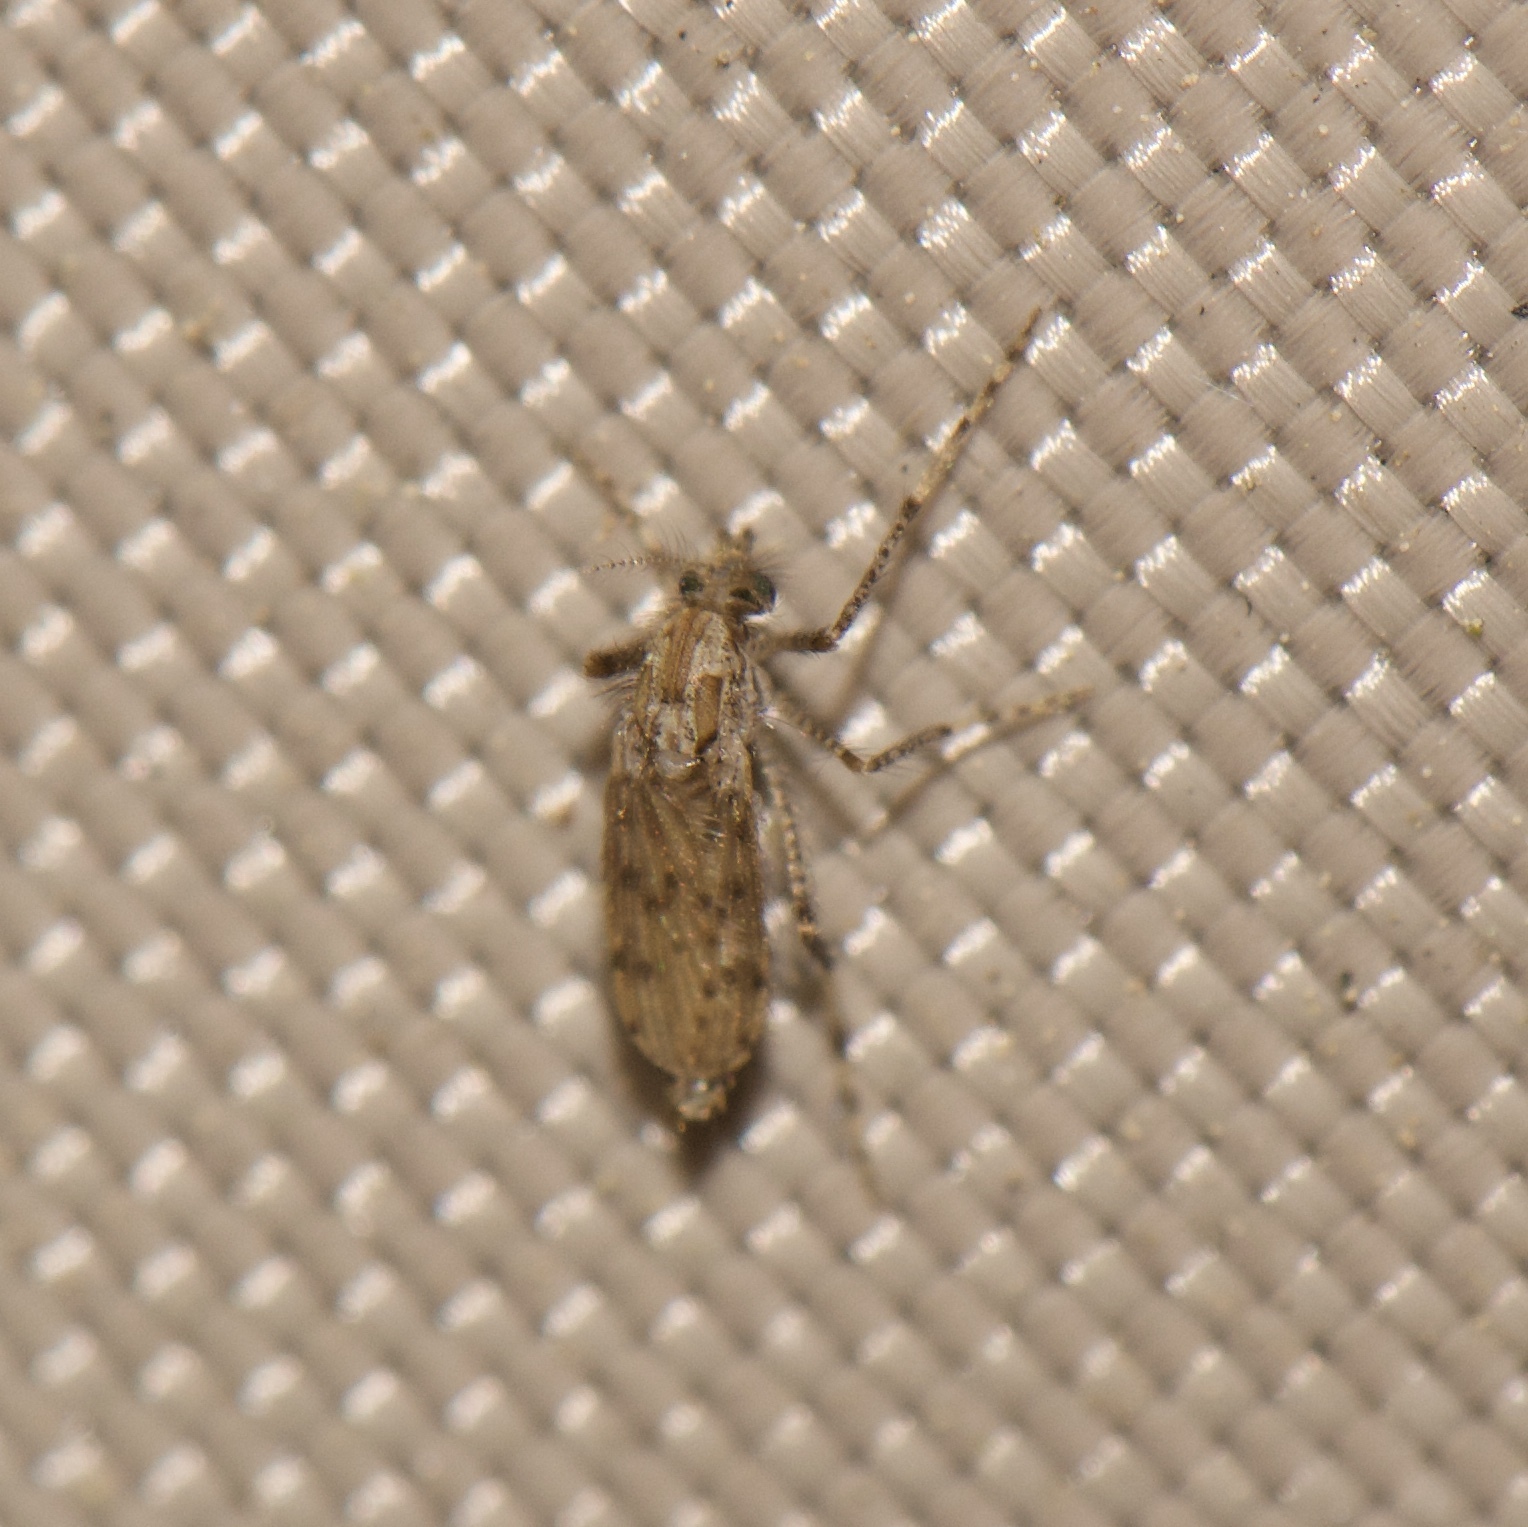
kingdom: Animalia
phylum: Arthropoda
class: Insecta
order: Diptera
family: Chaoboridae
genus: Chaoborus
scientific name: Chaoborus punctipennis
